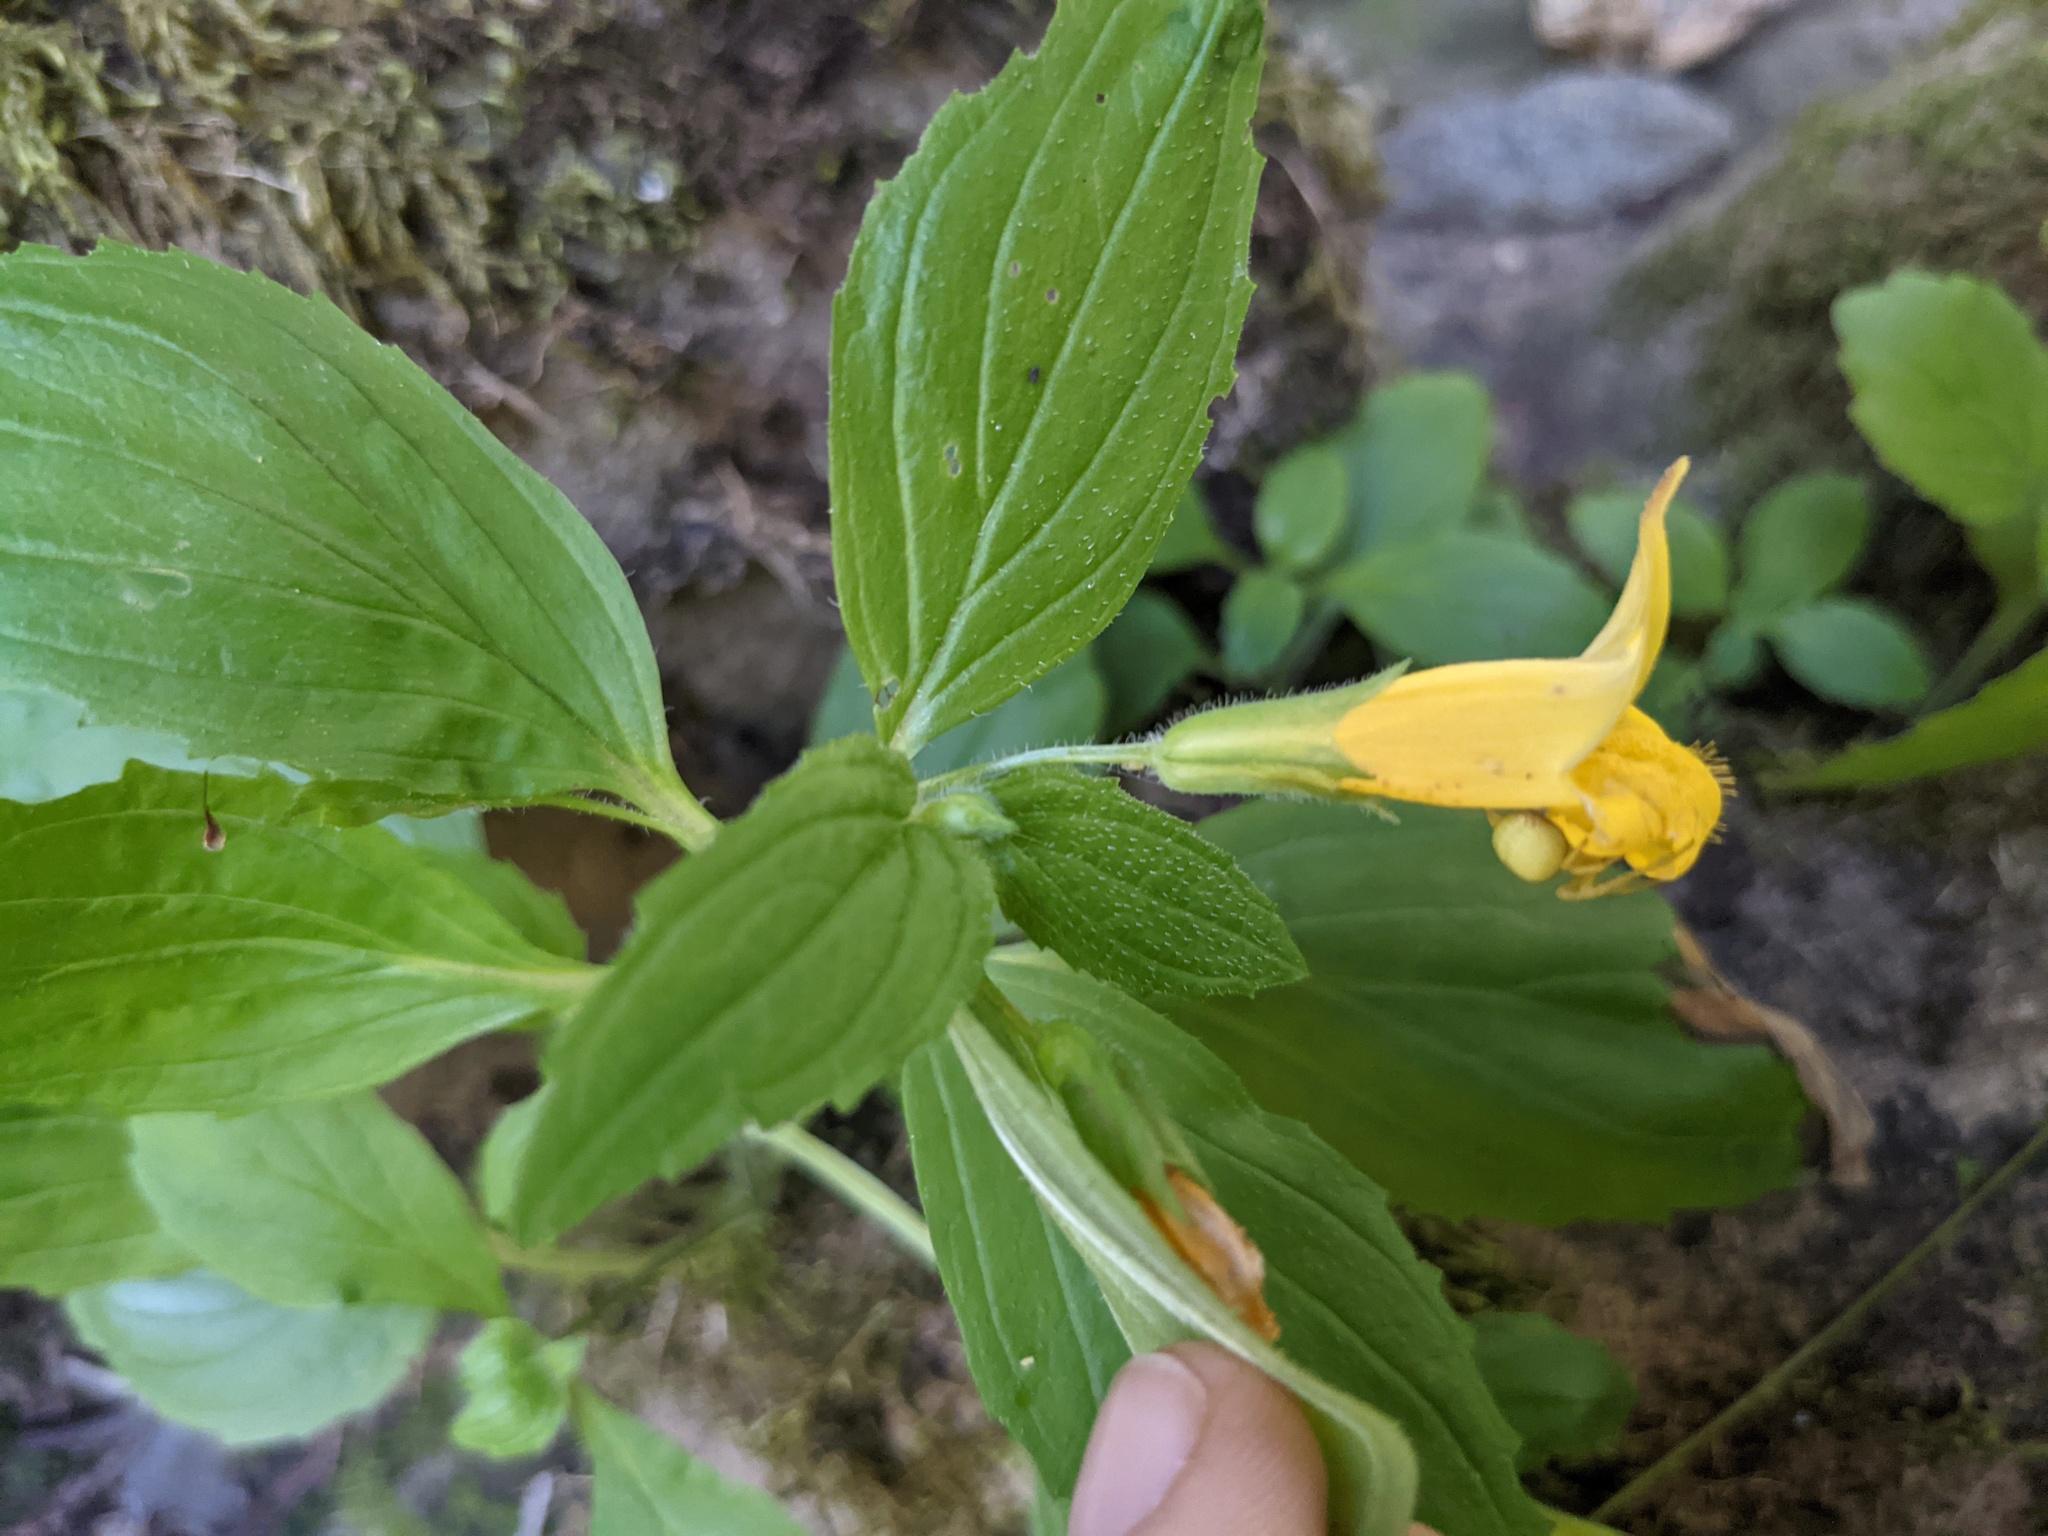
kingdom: Plantae
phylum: Tracheophyta
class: Magnoliopsida
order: Lamiales
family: Phrymaceae
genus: Erythranthe
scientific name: Erythranthe dentata
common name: Coastal monkeyflower
